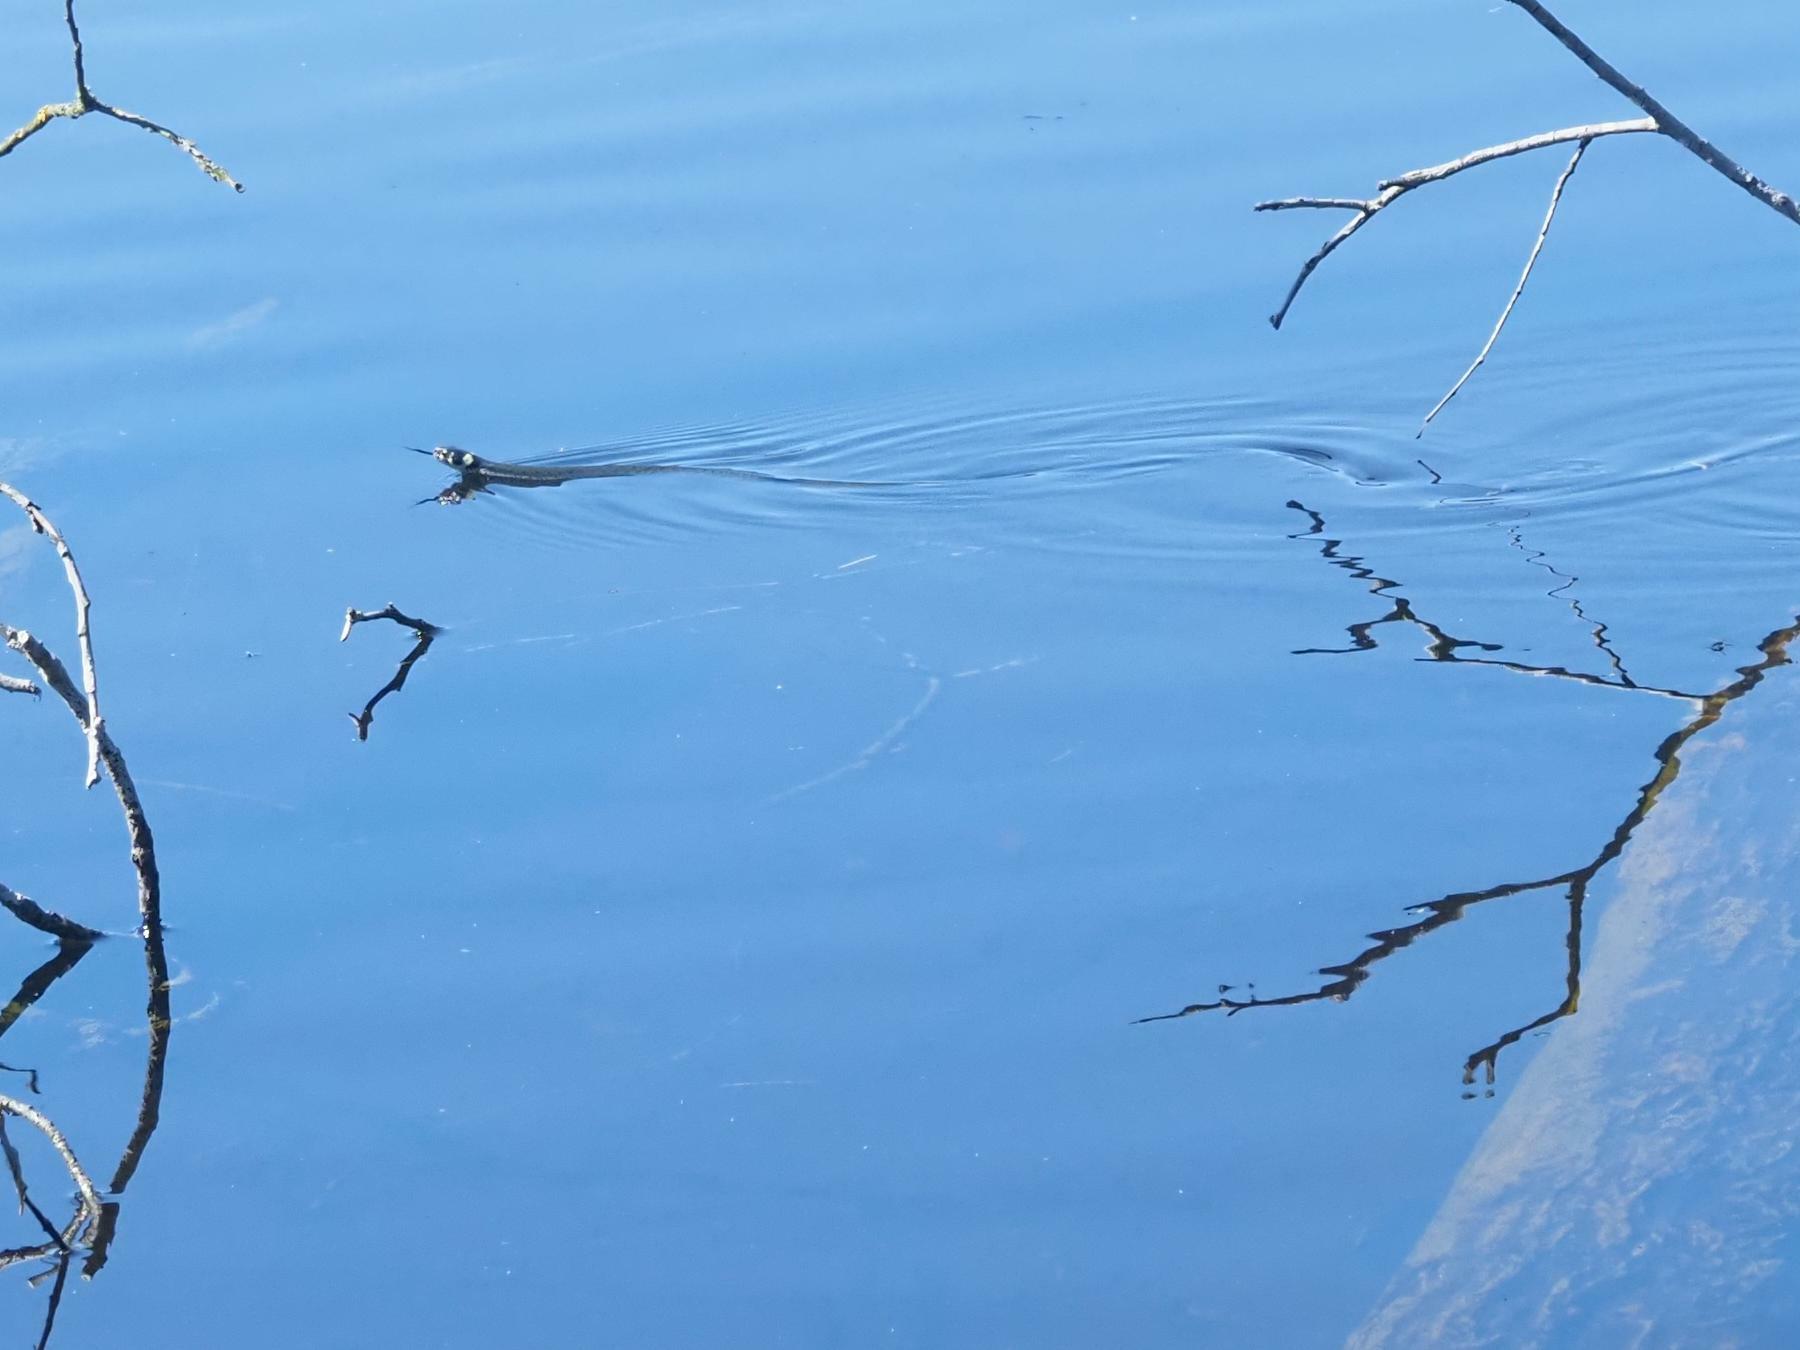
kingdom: Animalia
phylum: Chordata
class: Squamata
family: Colubridae
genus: Natrix
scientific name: Natrix natrix
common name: Grass snake
